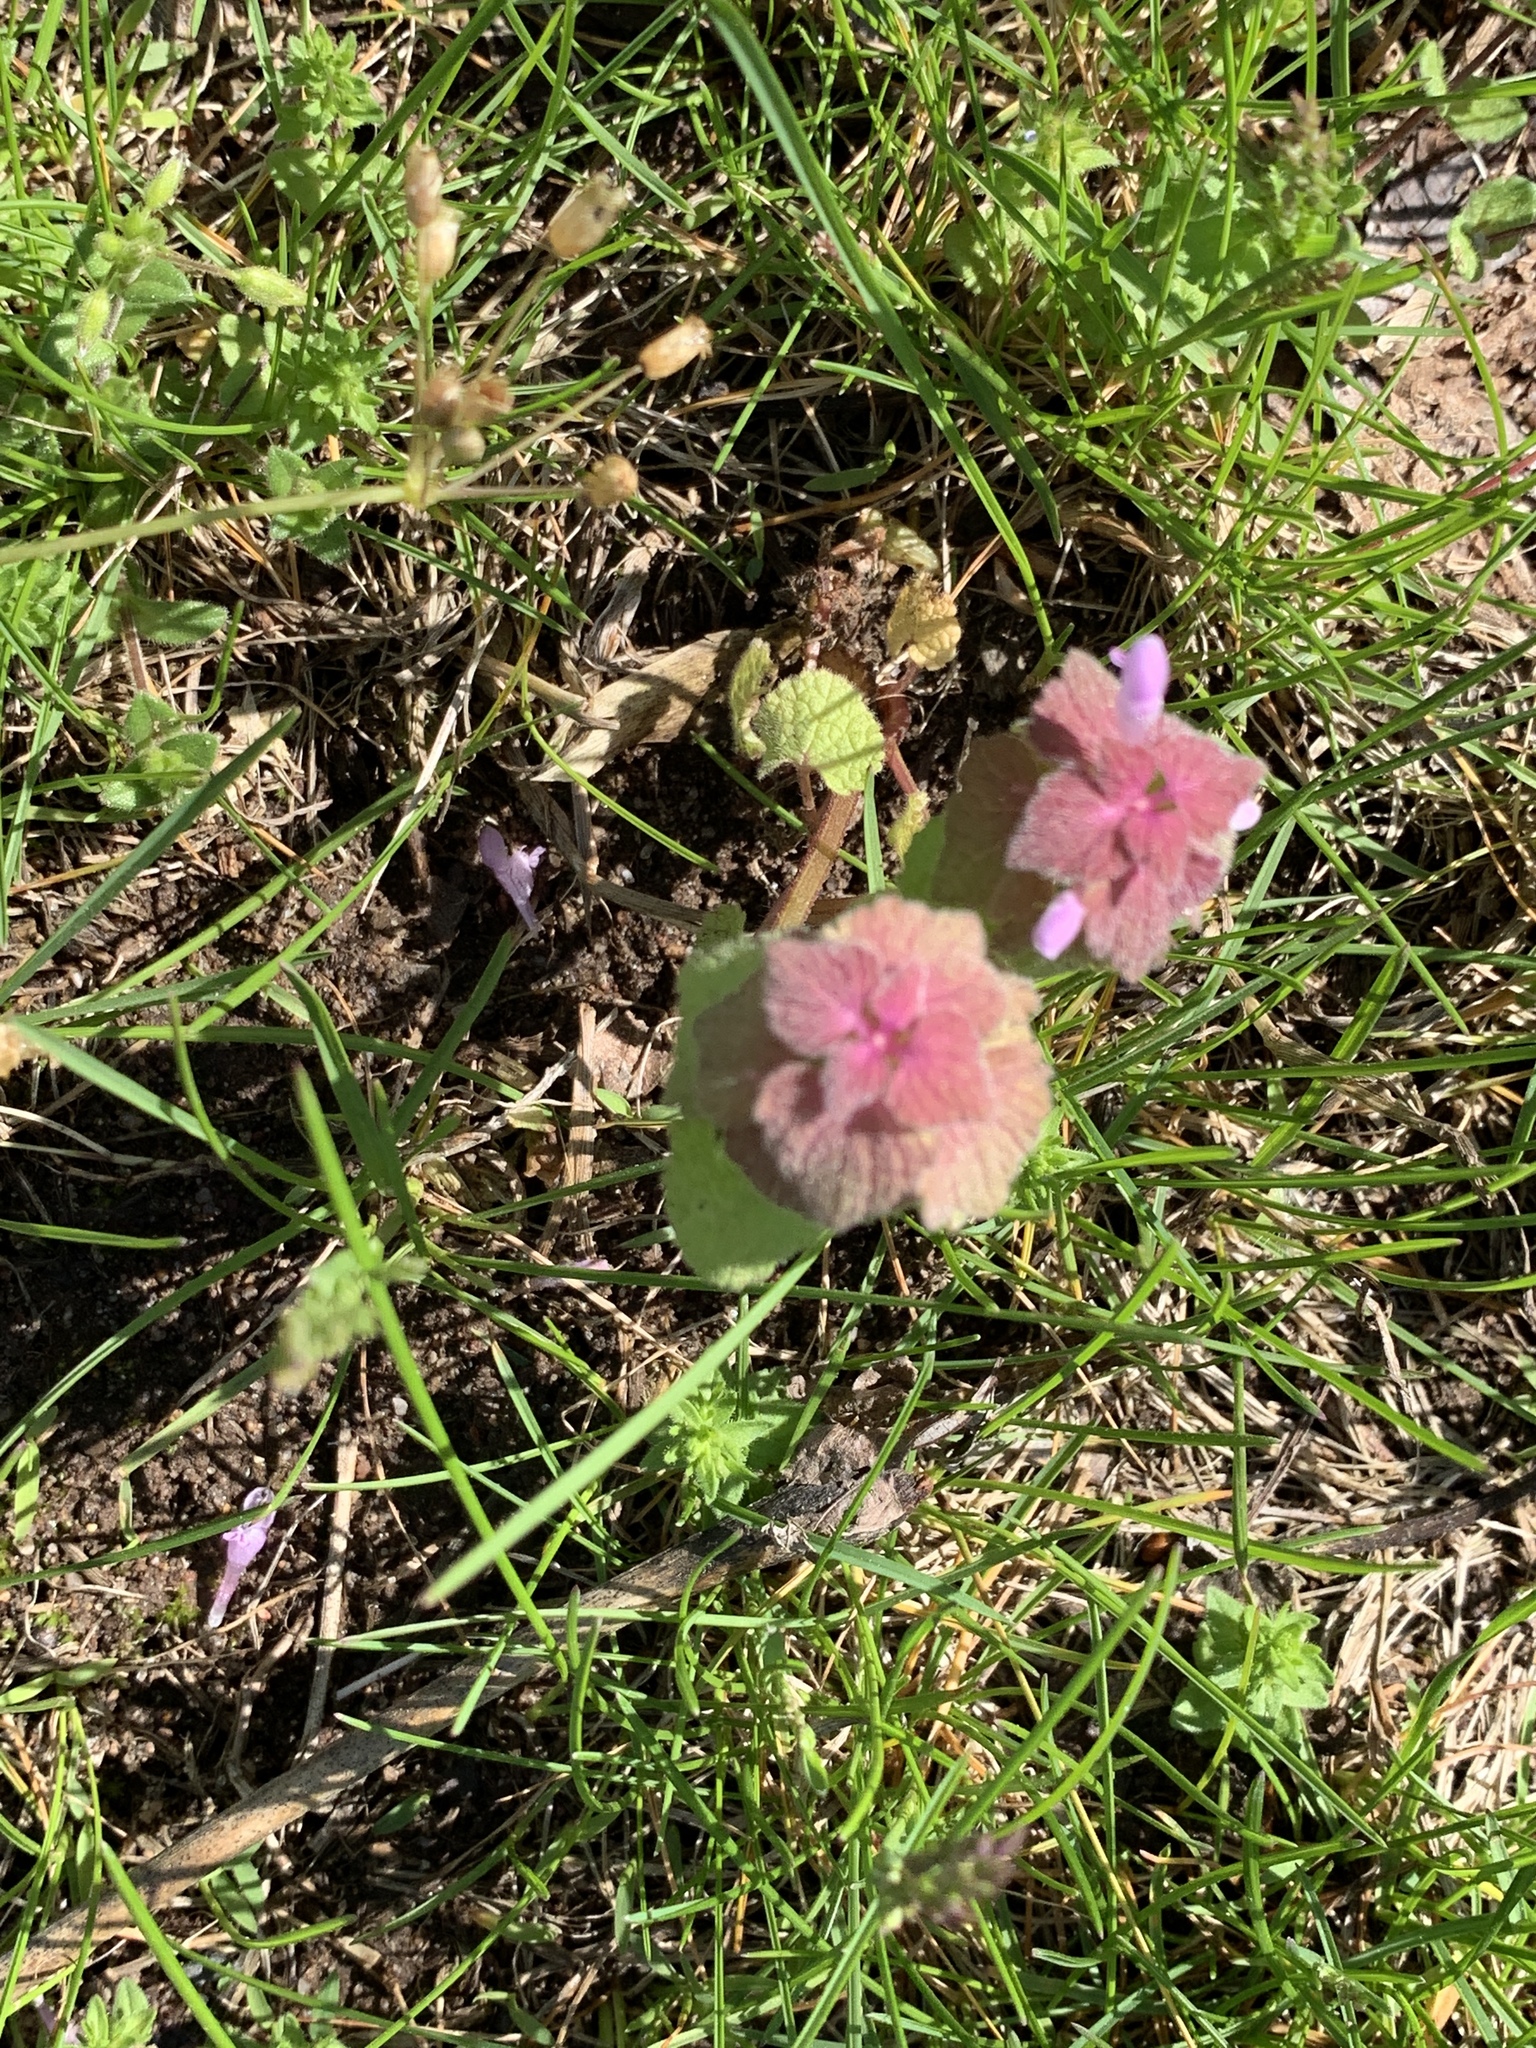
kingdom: Plantae
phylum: Tracheophyta
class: Magnoliopsida
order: Lamiales
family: Lamiaceae
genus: Lamium
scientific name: Lamium purpureum
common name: Red dead-nettle
